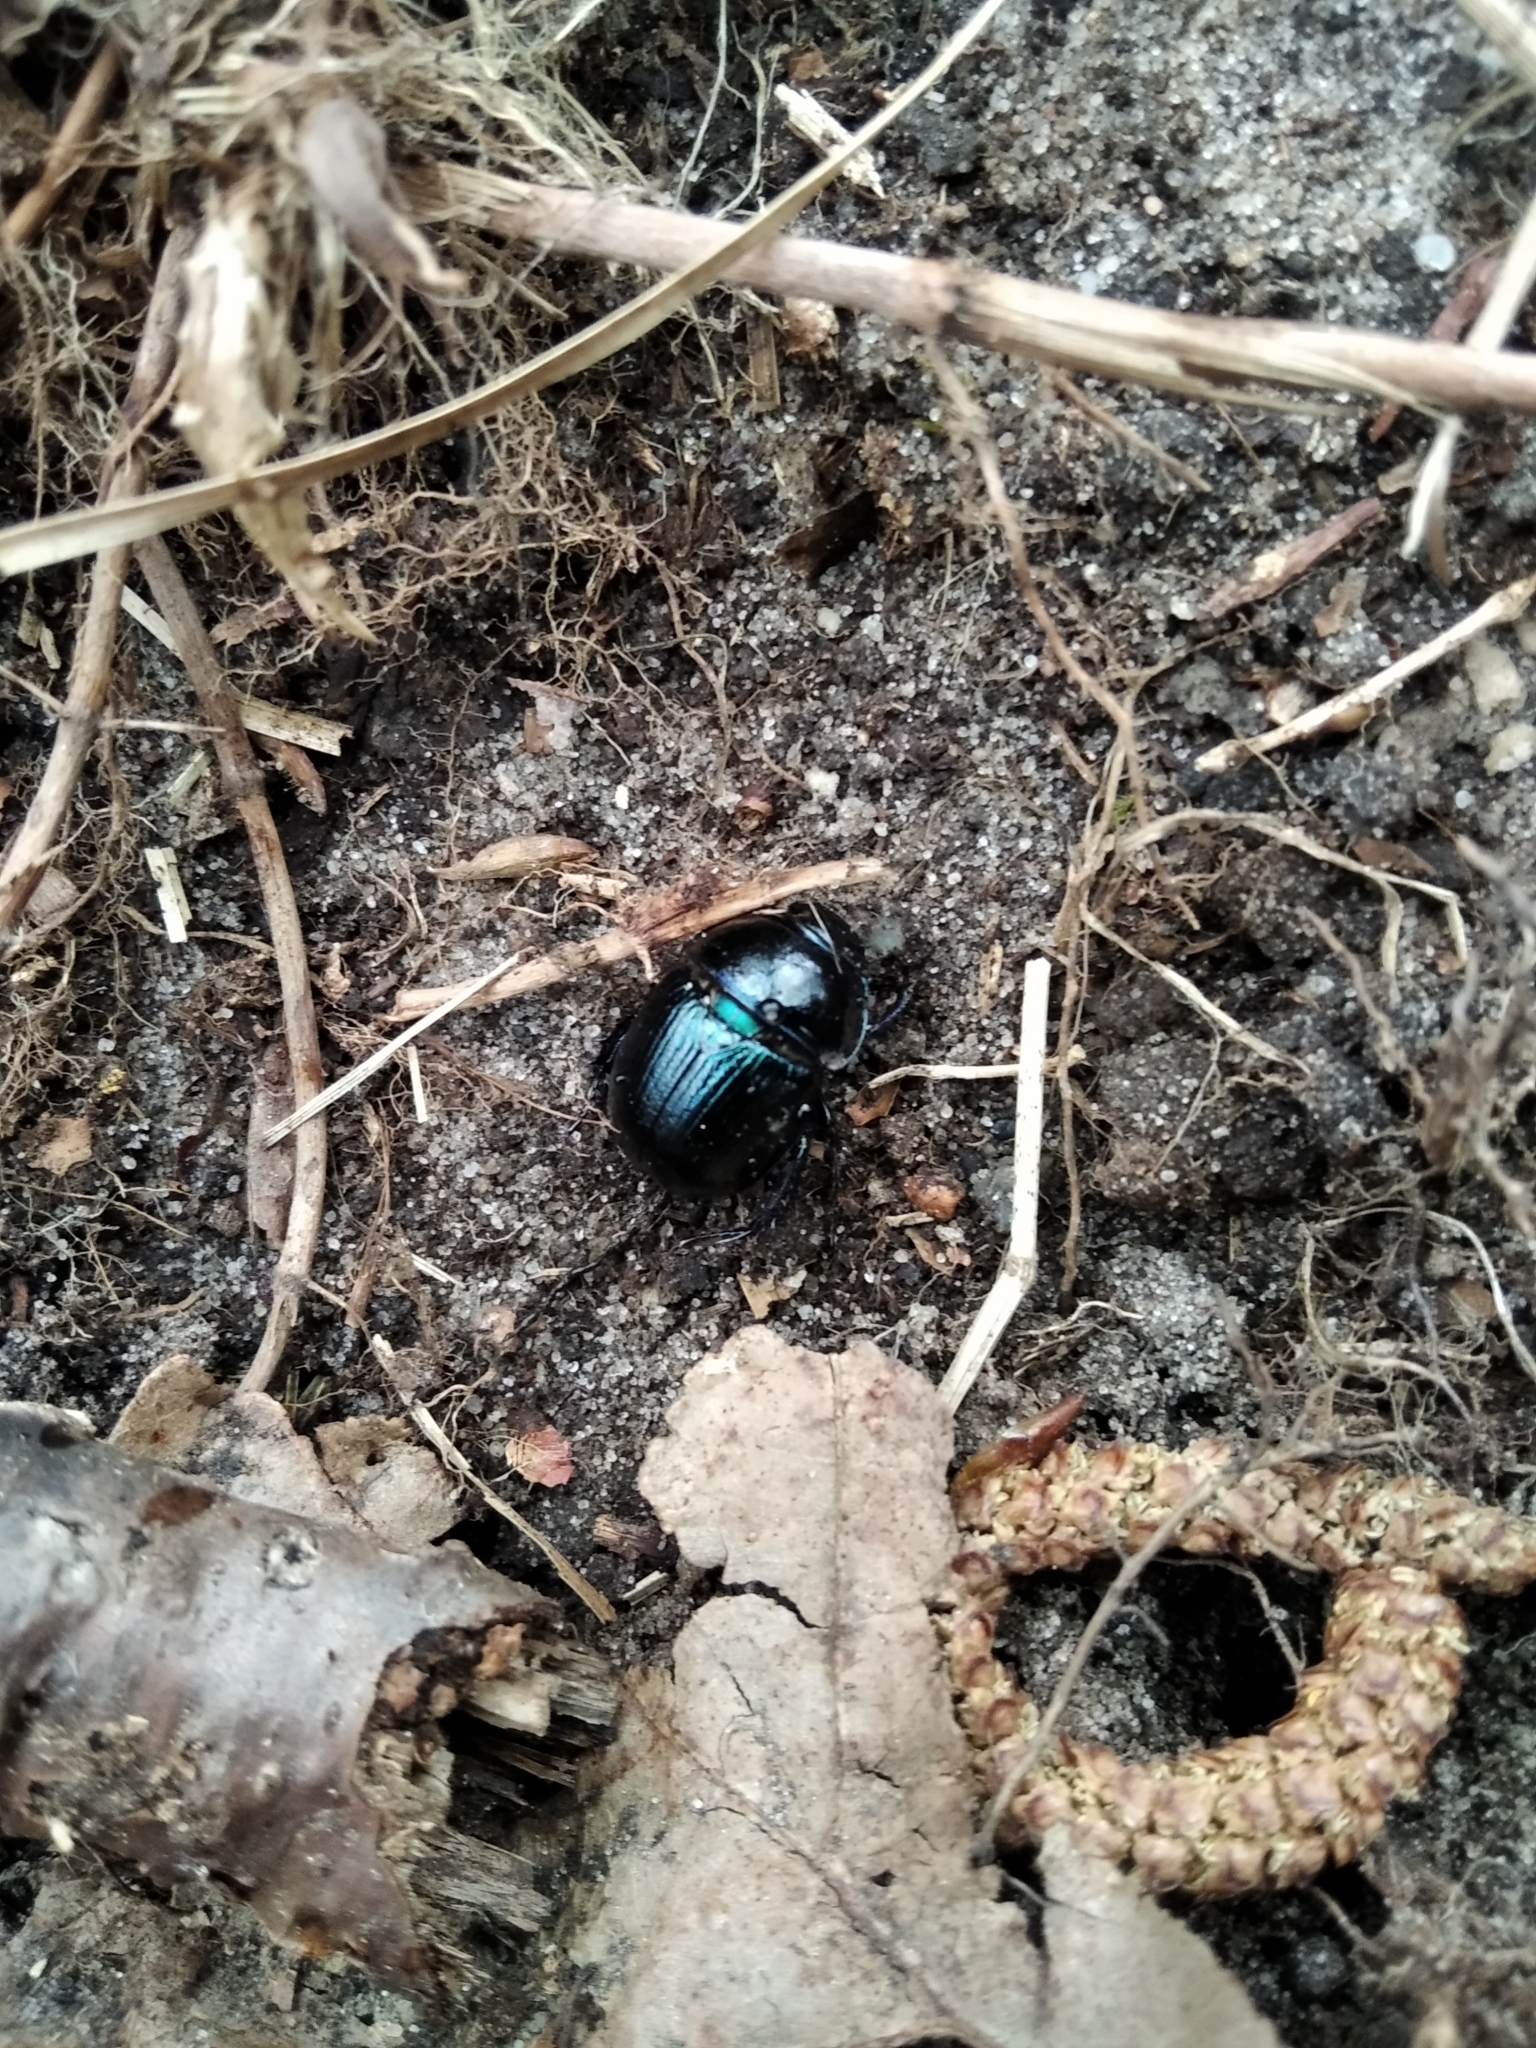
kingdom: Animalia
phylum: Arthropoda
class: Insecta
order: Coleoptera
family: Geotrupidae
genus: Anoplotrupes
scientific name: Anoplotrupes stercorosus
